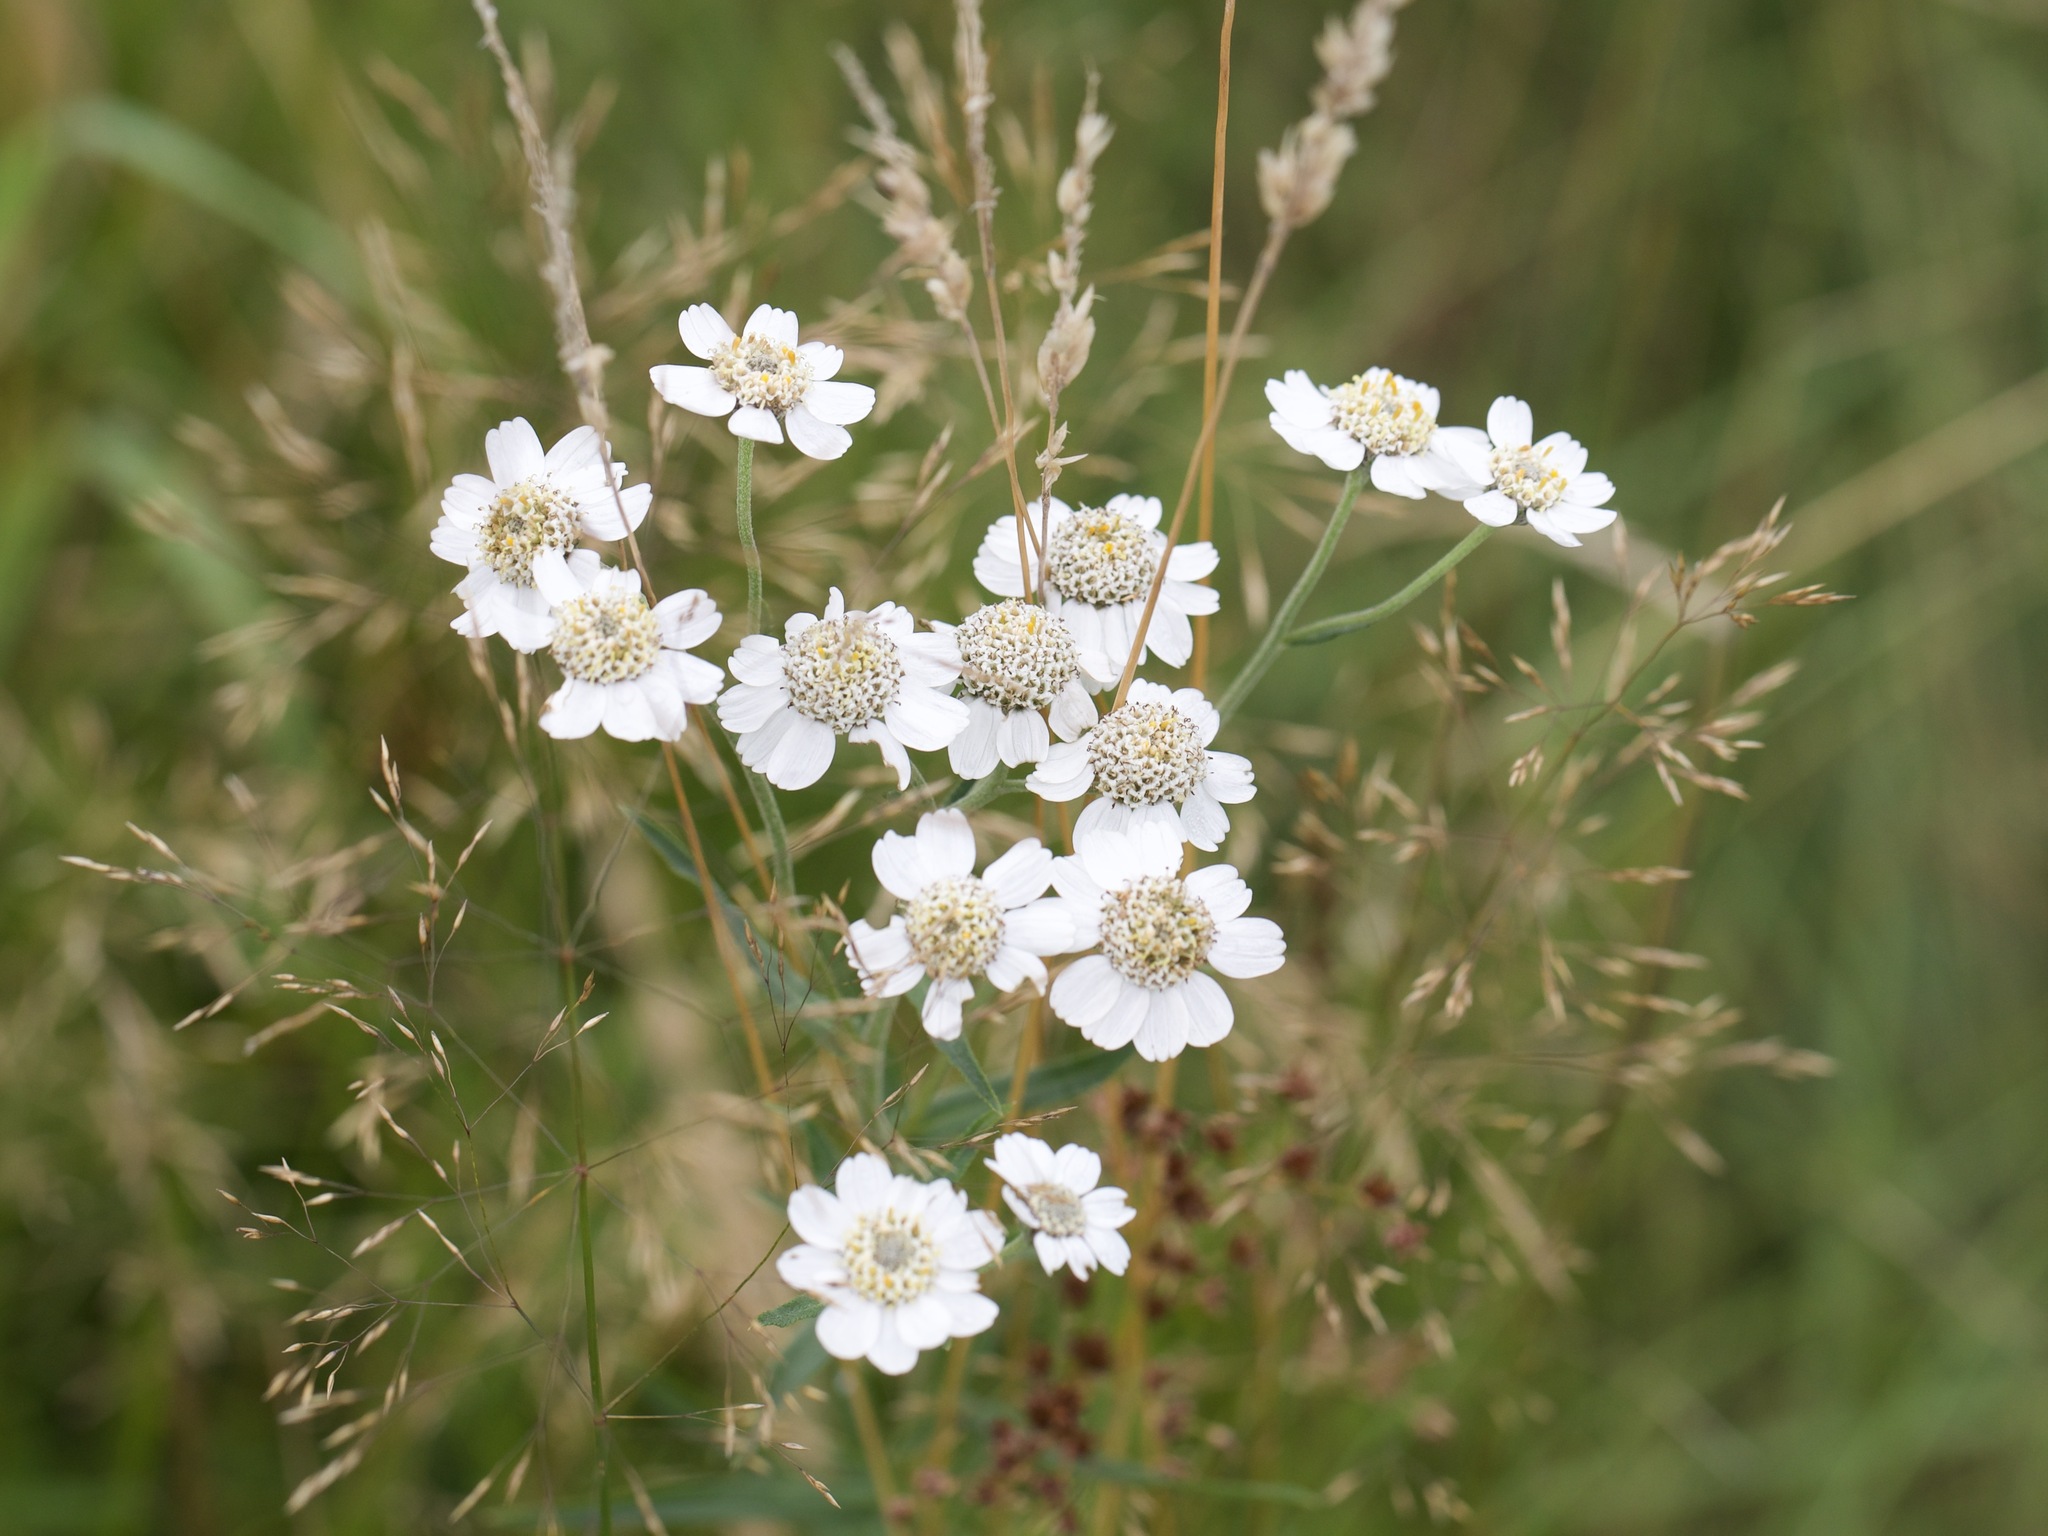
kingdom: Plantae
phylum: Tracheophyta
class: Magnoliopsida
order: Asterales
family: Asteraceae
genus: Achillea
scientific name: Achillea ptarmica
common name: Sneezeweed
